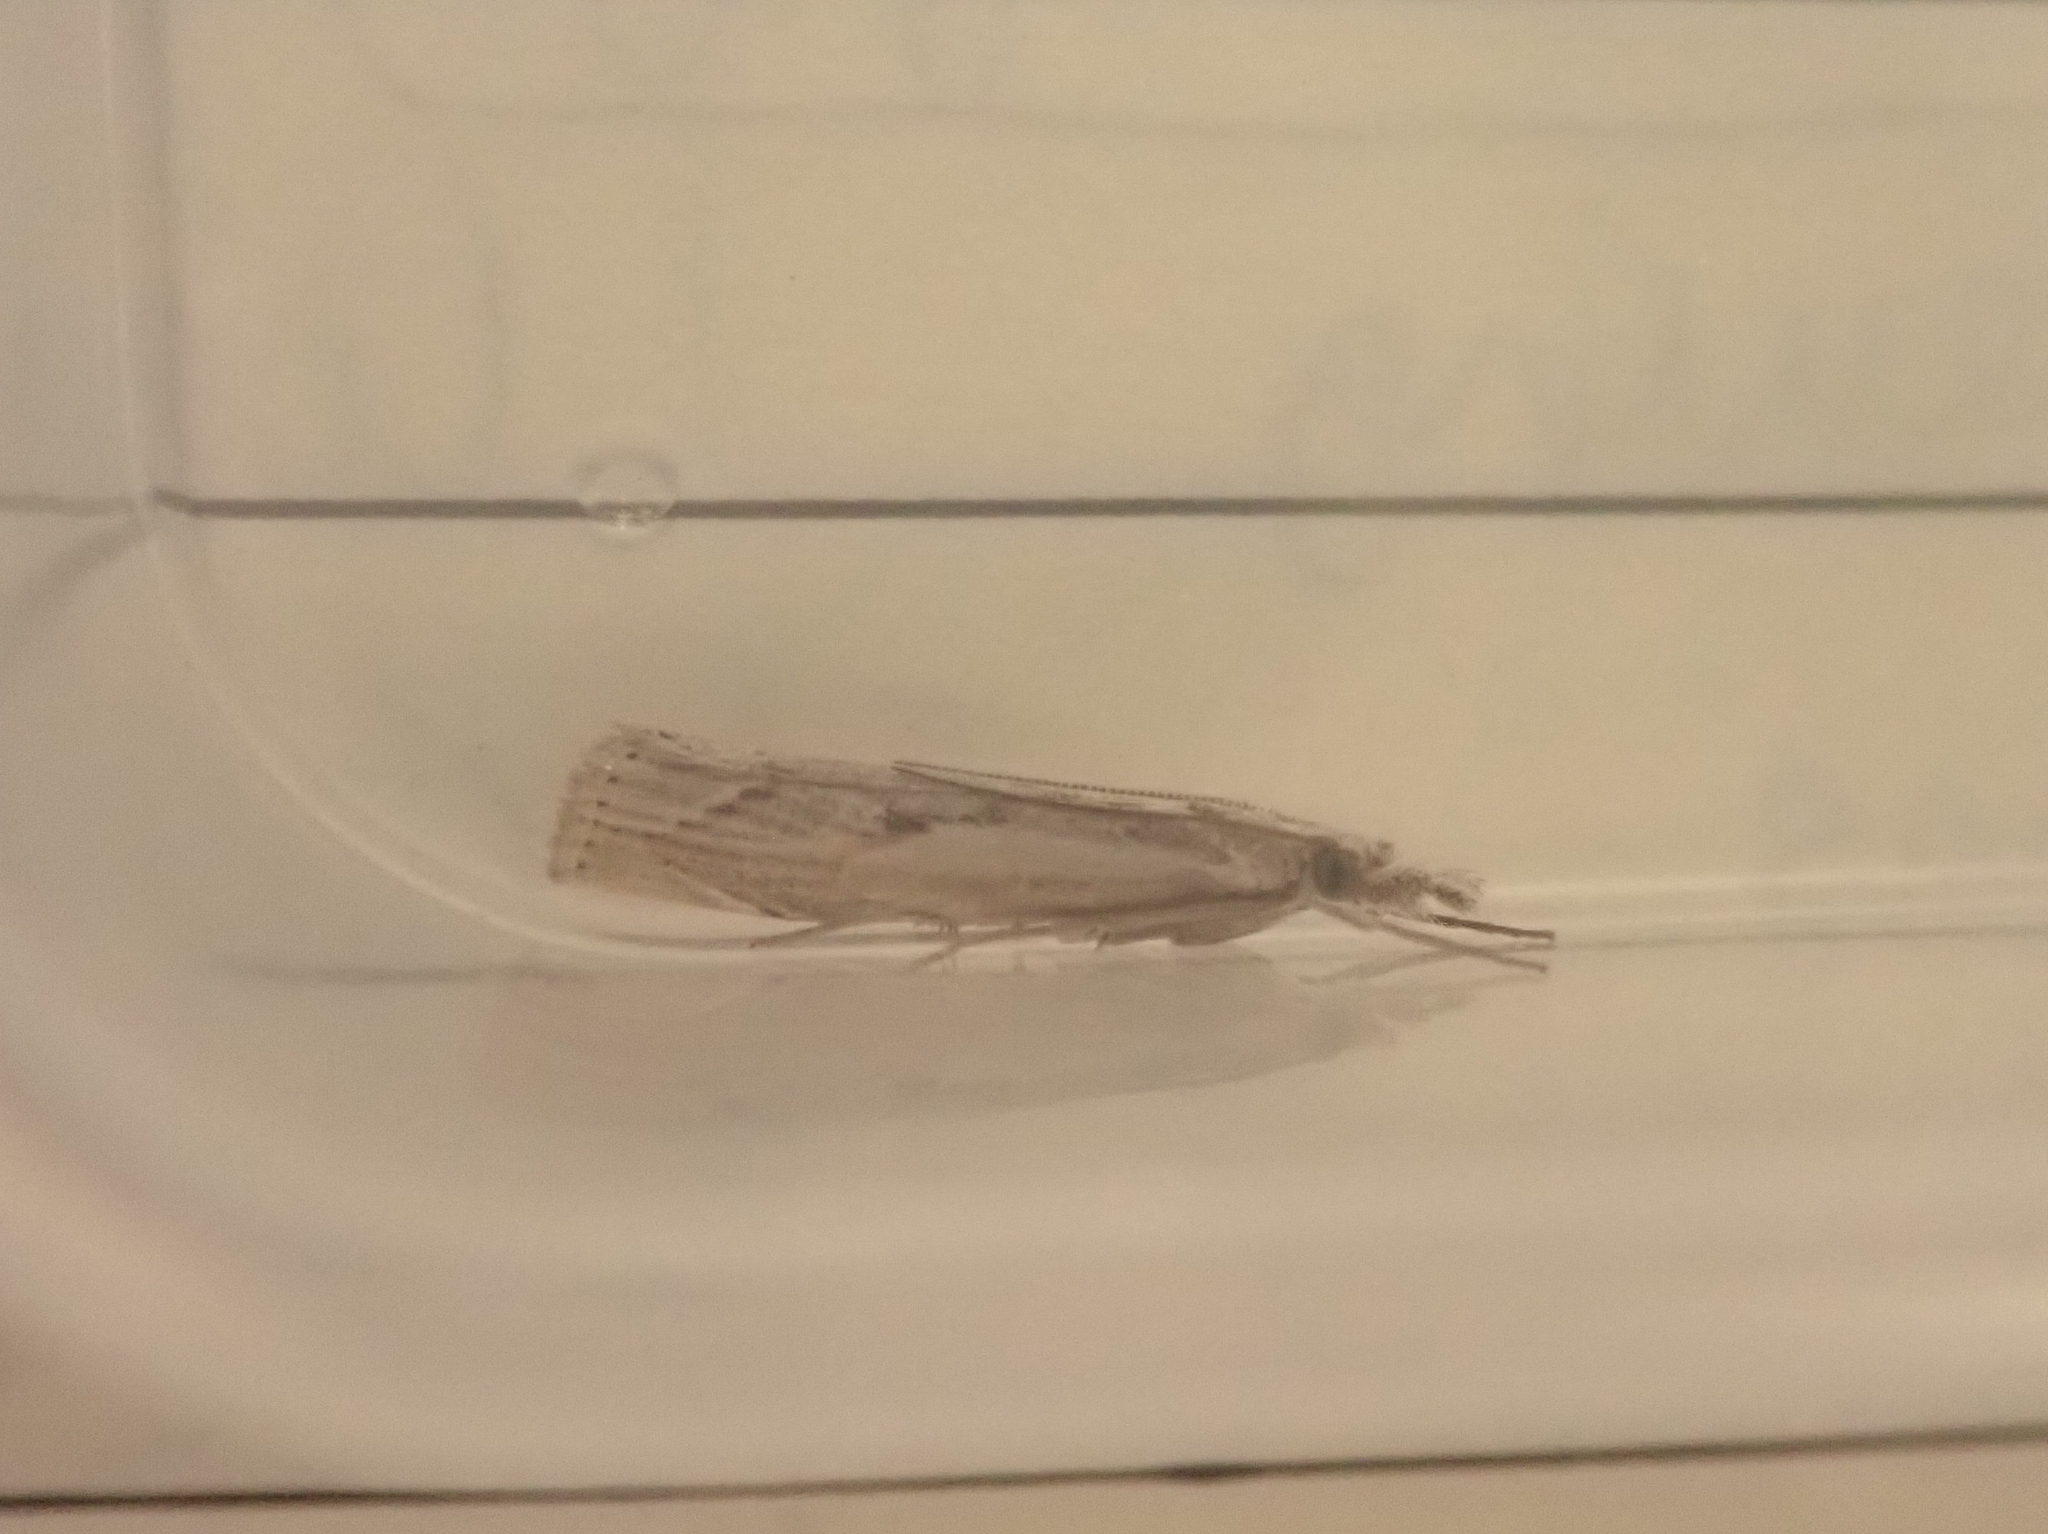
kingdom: Animalia
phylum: Arthropoda
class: Insecta
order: Lepidoptera
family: Crambidae
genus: Agriphila
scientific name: Agriphila geniculea
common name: Elbow-stripe grass-veneer
